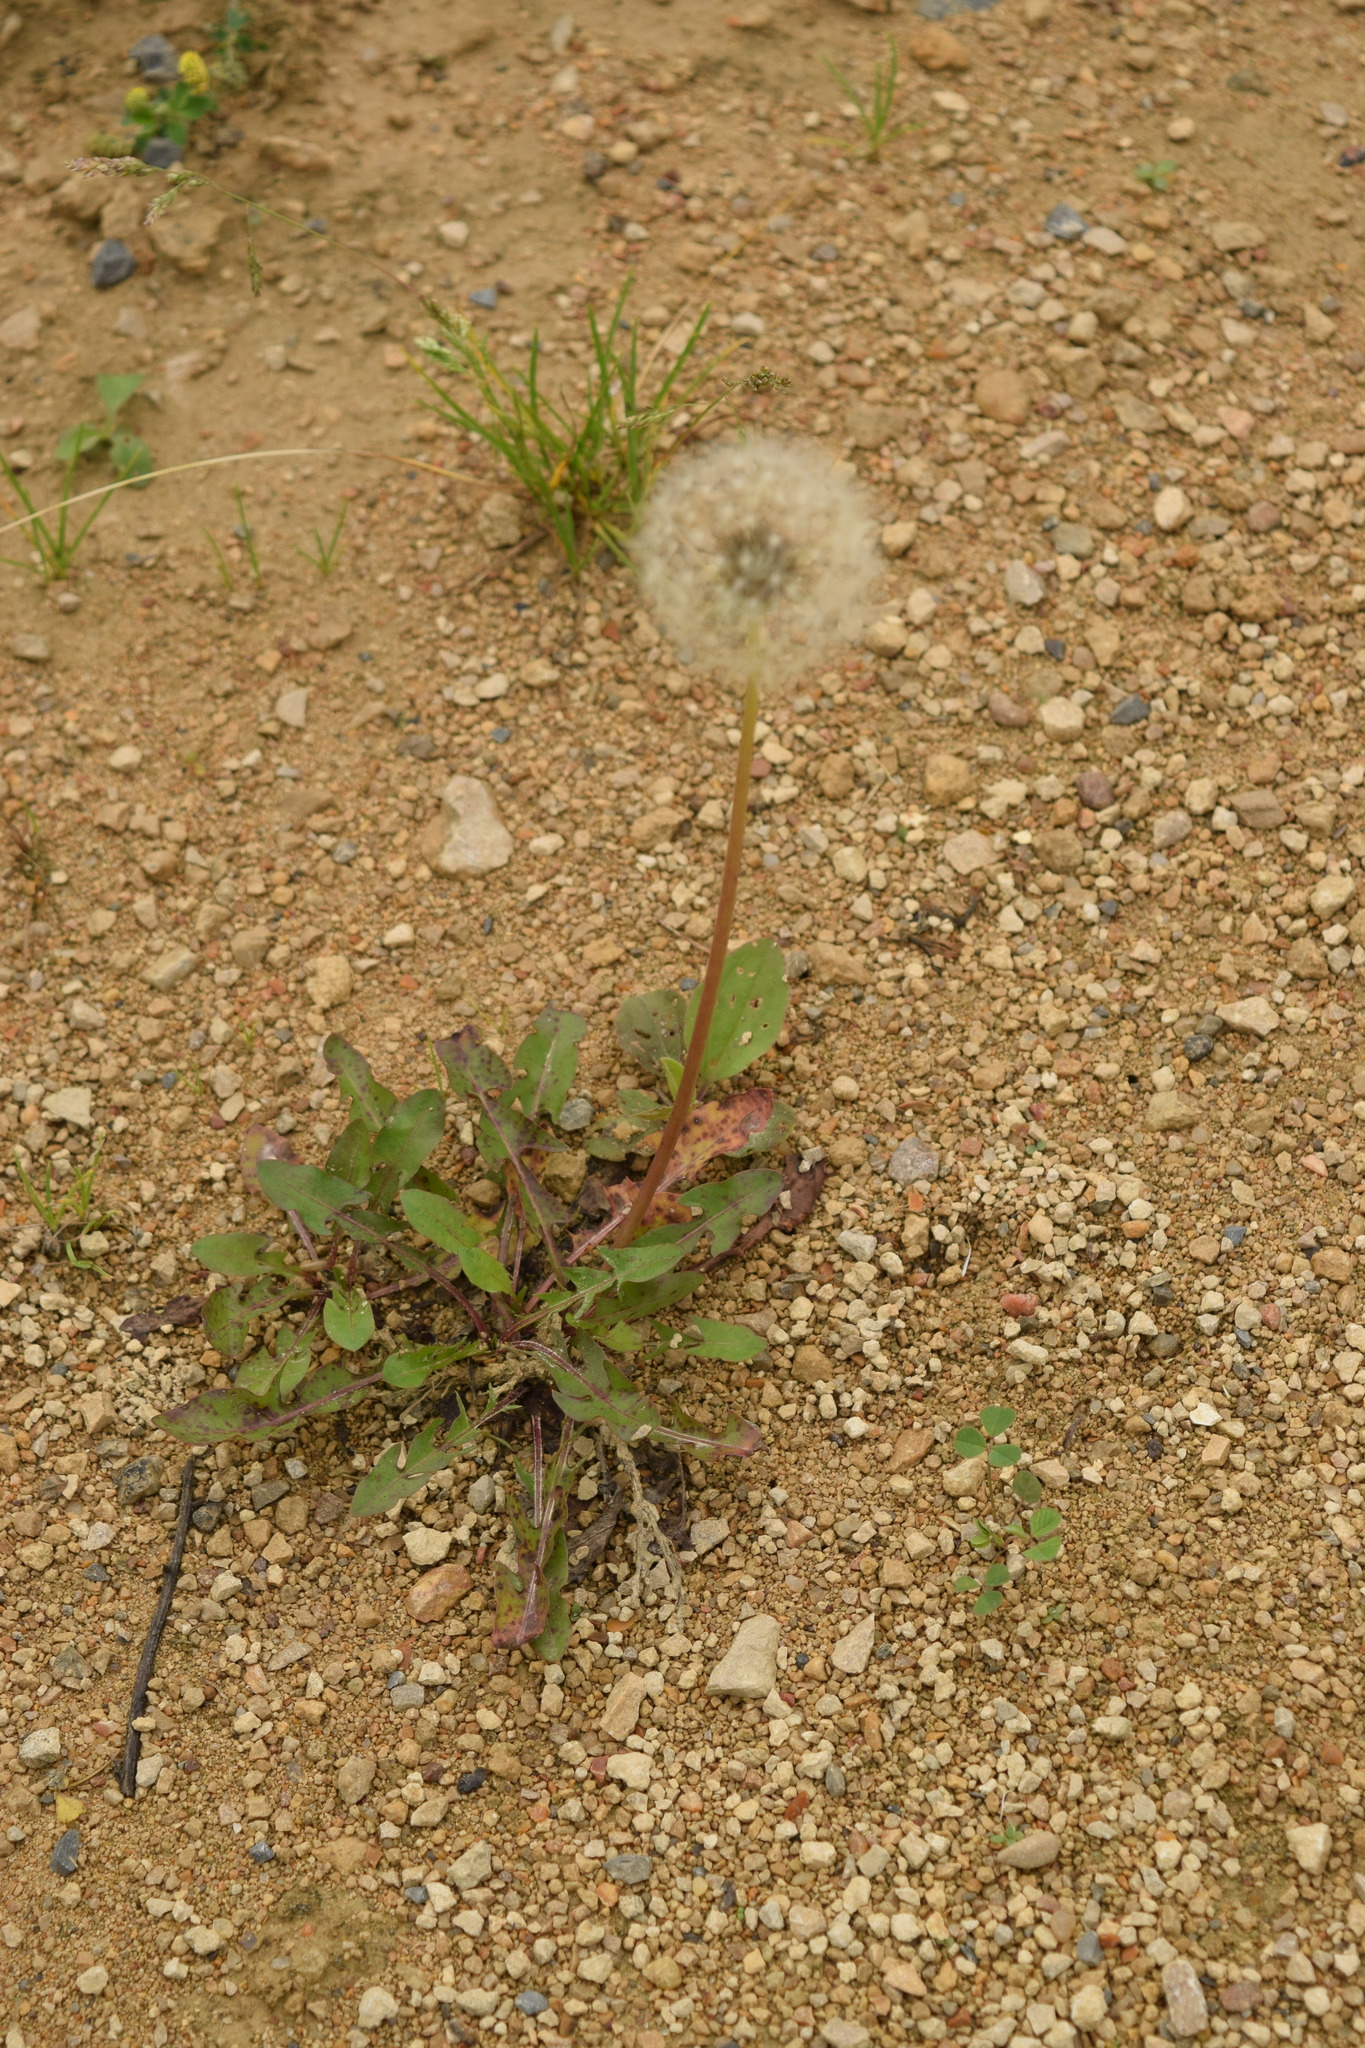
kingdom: Plantae
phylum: Tracheophyta
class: Magnoliopsida
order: Asterales
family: Asteraceae
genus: Taraxacum
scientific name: Taraxacum officinale
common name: Common dandelion
